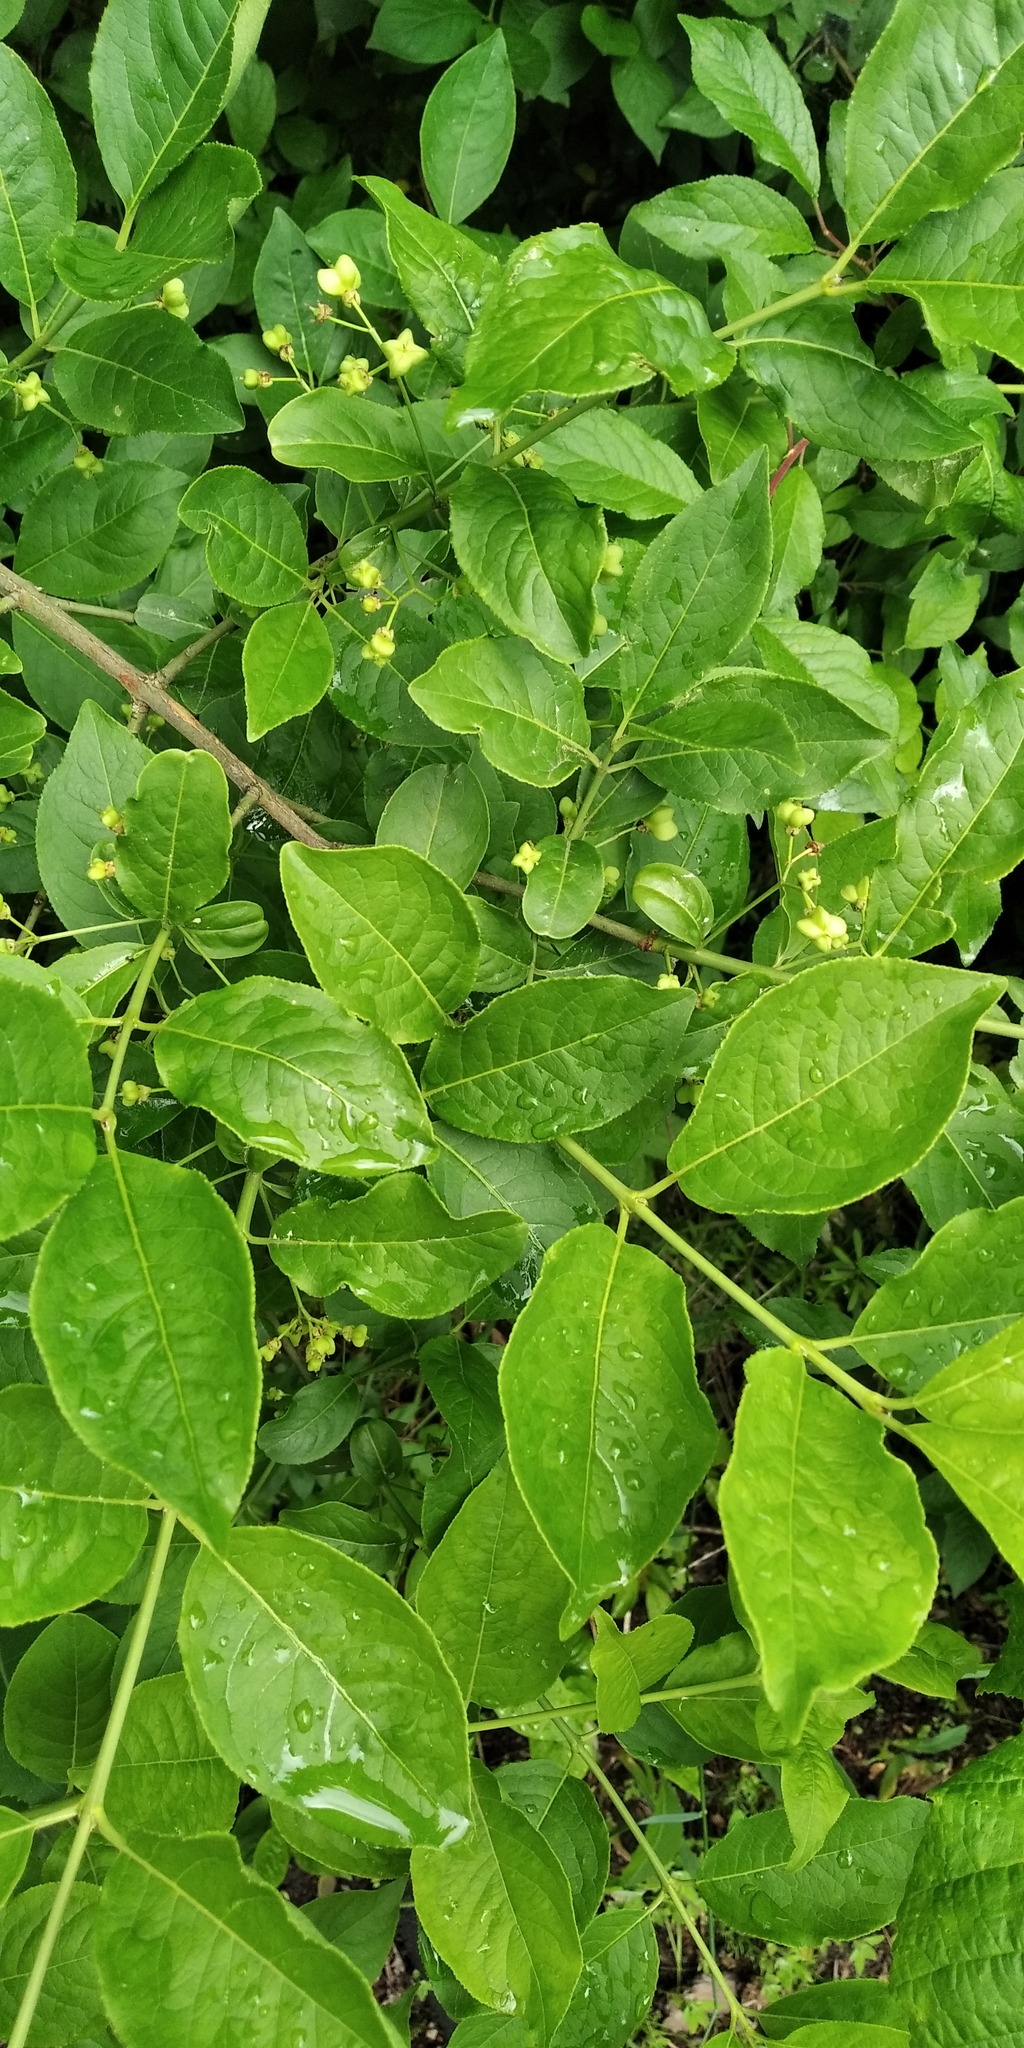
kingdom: Plantae
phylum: Tracheophyta
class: Magnoliopsida
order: Celastrales
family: Celastraceae
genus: Euonymus
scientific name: Euonymus europaeus
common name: Spindle
